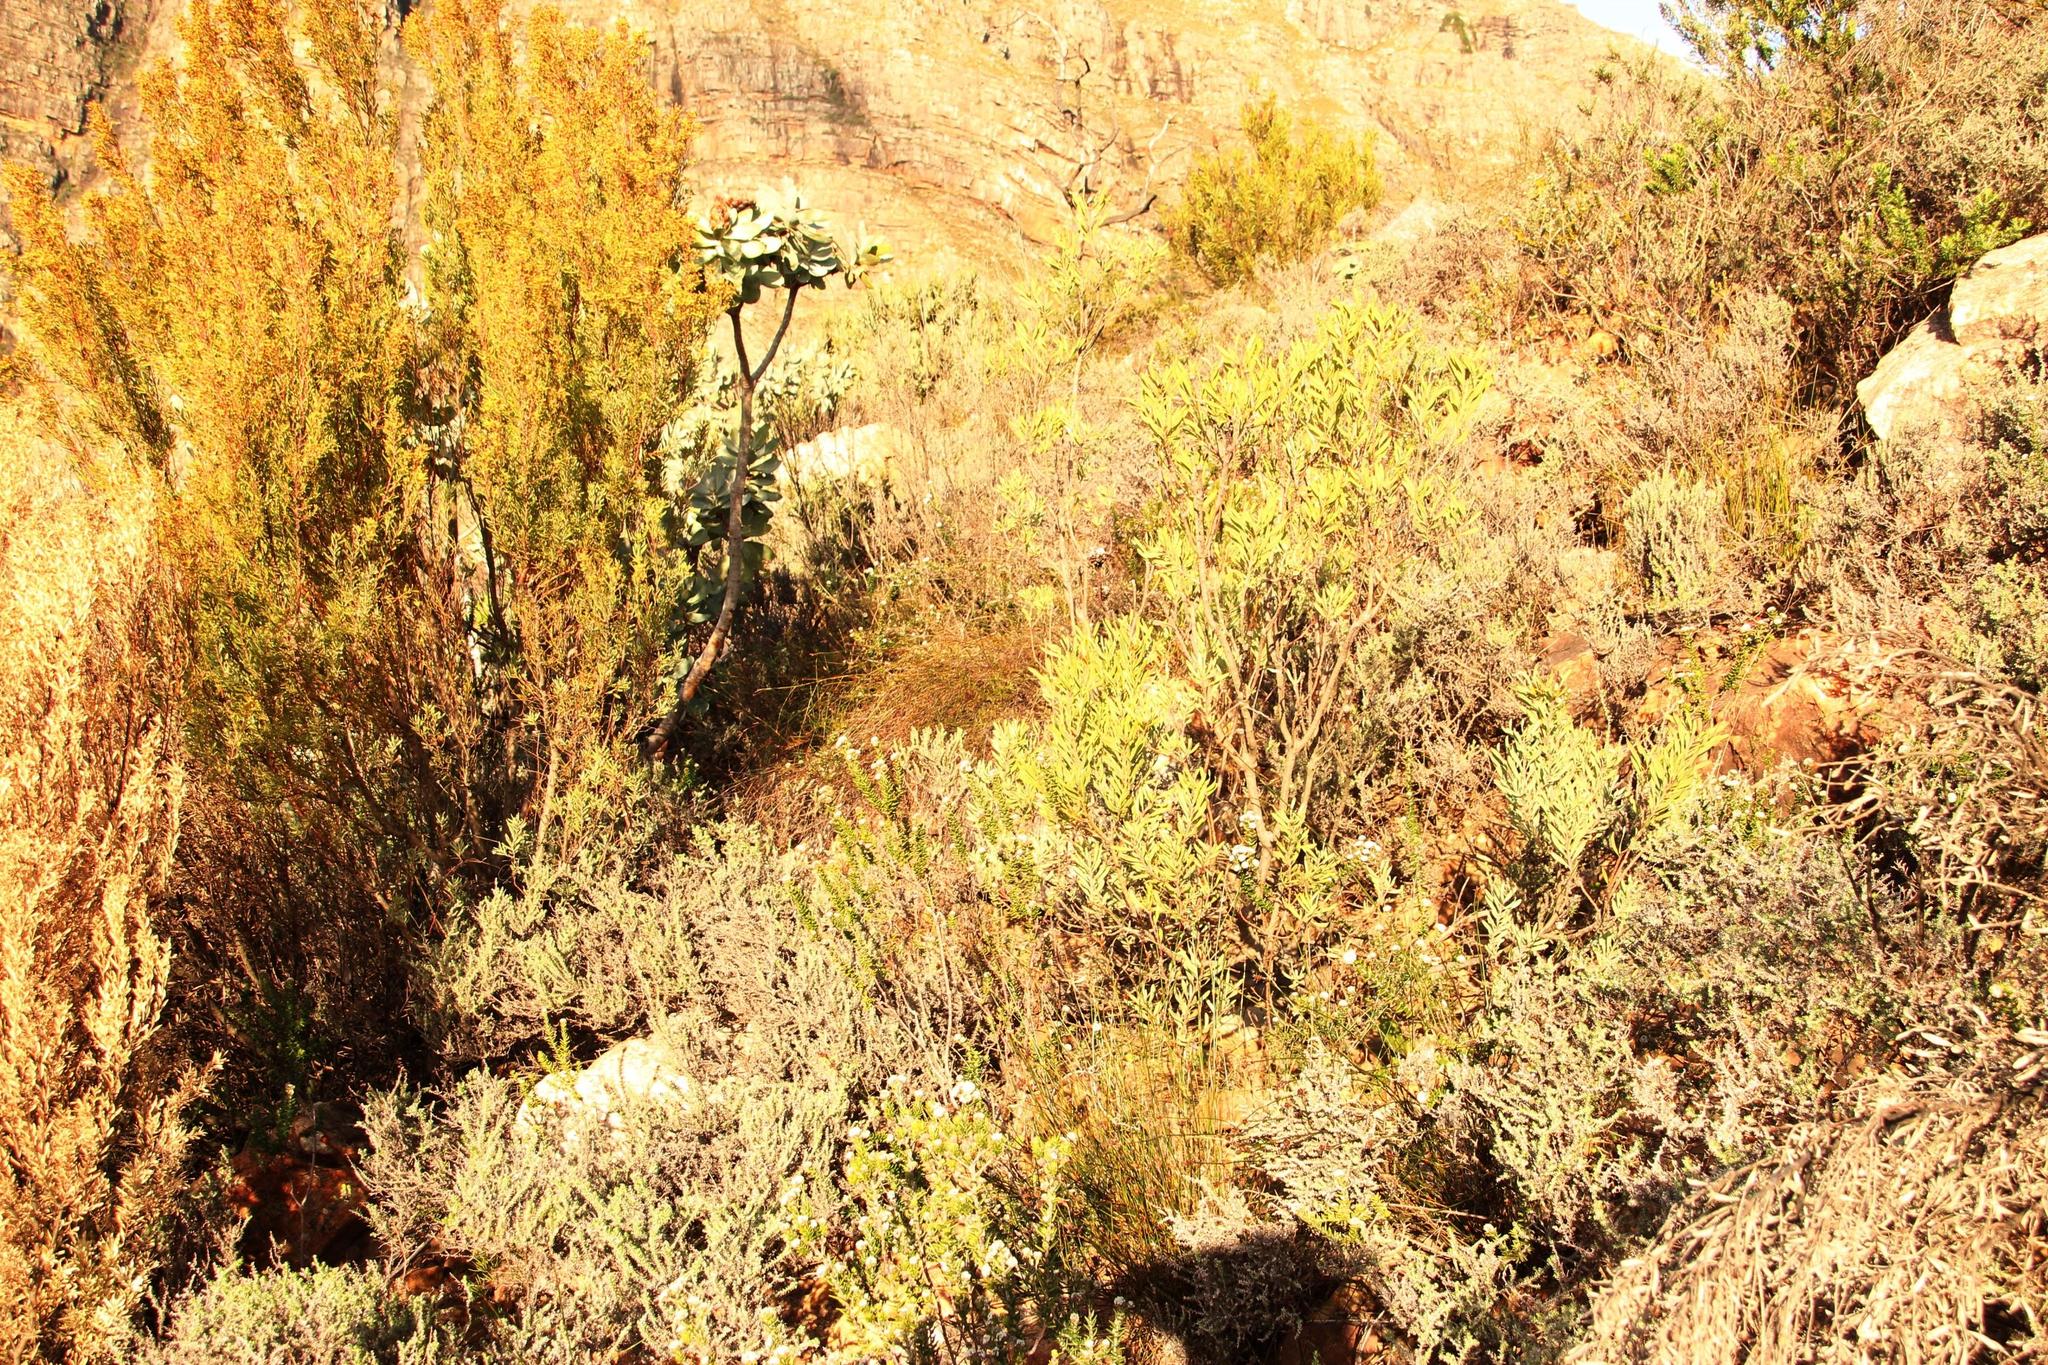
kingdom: Plantae
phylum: Tracheophyta
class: Magnoliopsida
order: Rosales
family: Rhamnaceae
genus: Phylica
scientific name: Phylica nervosa
